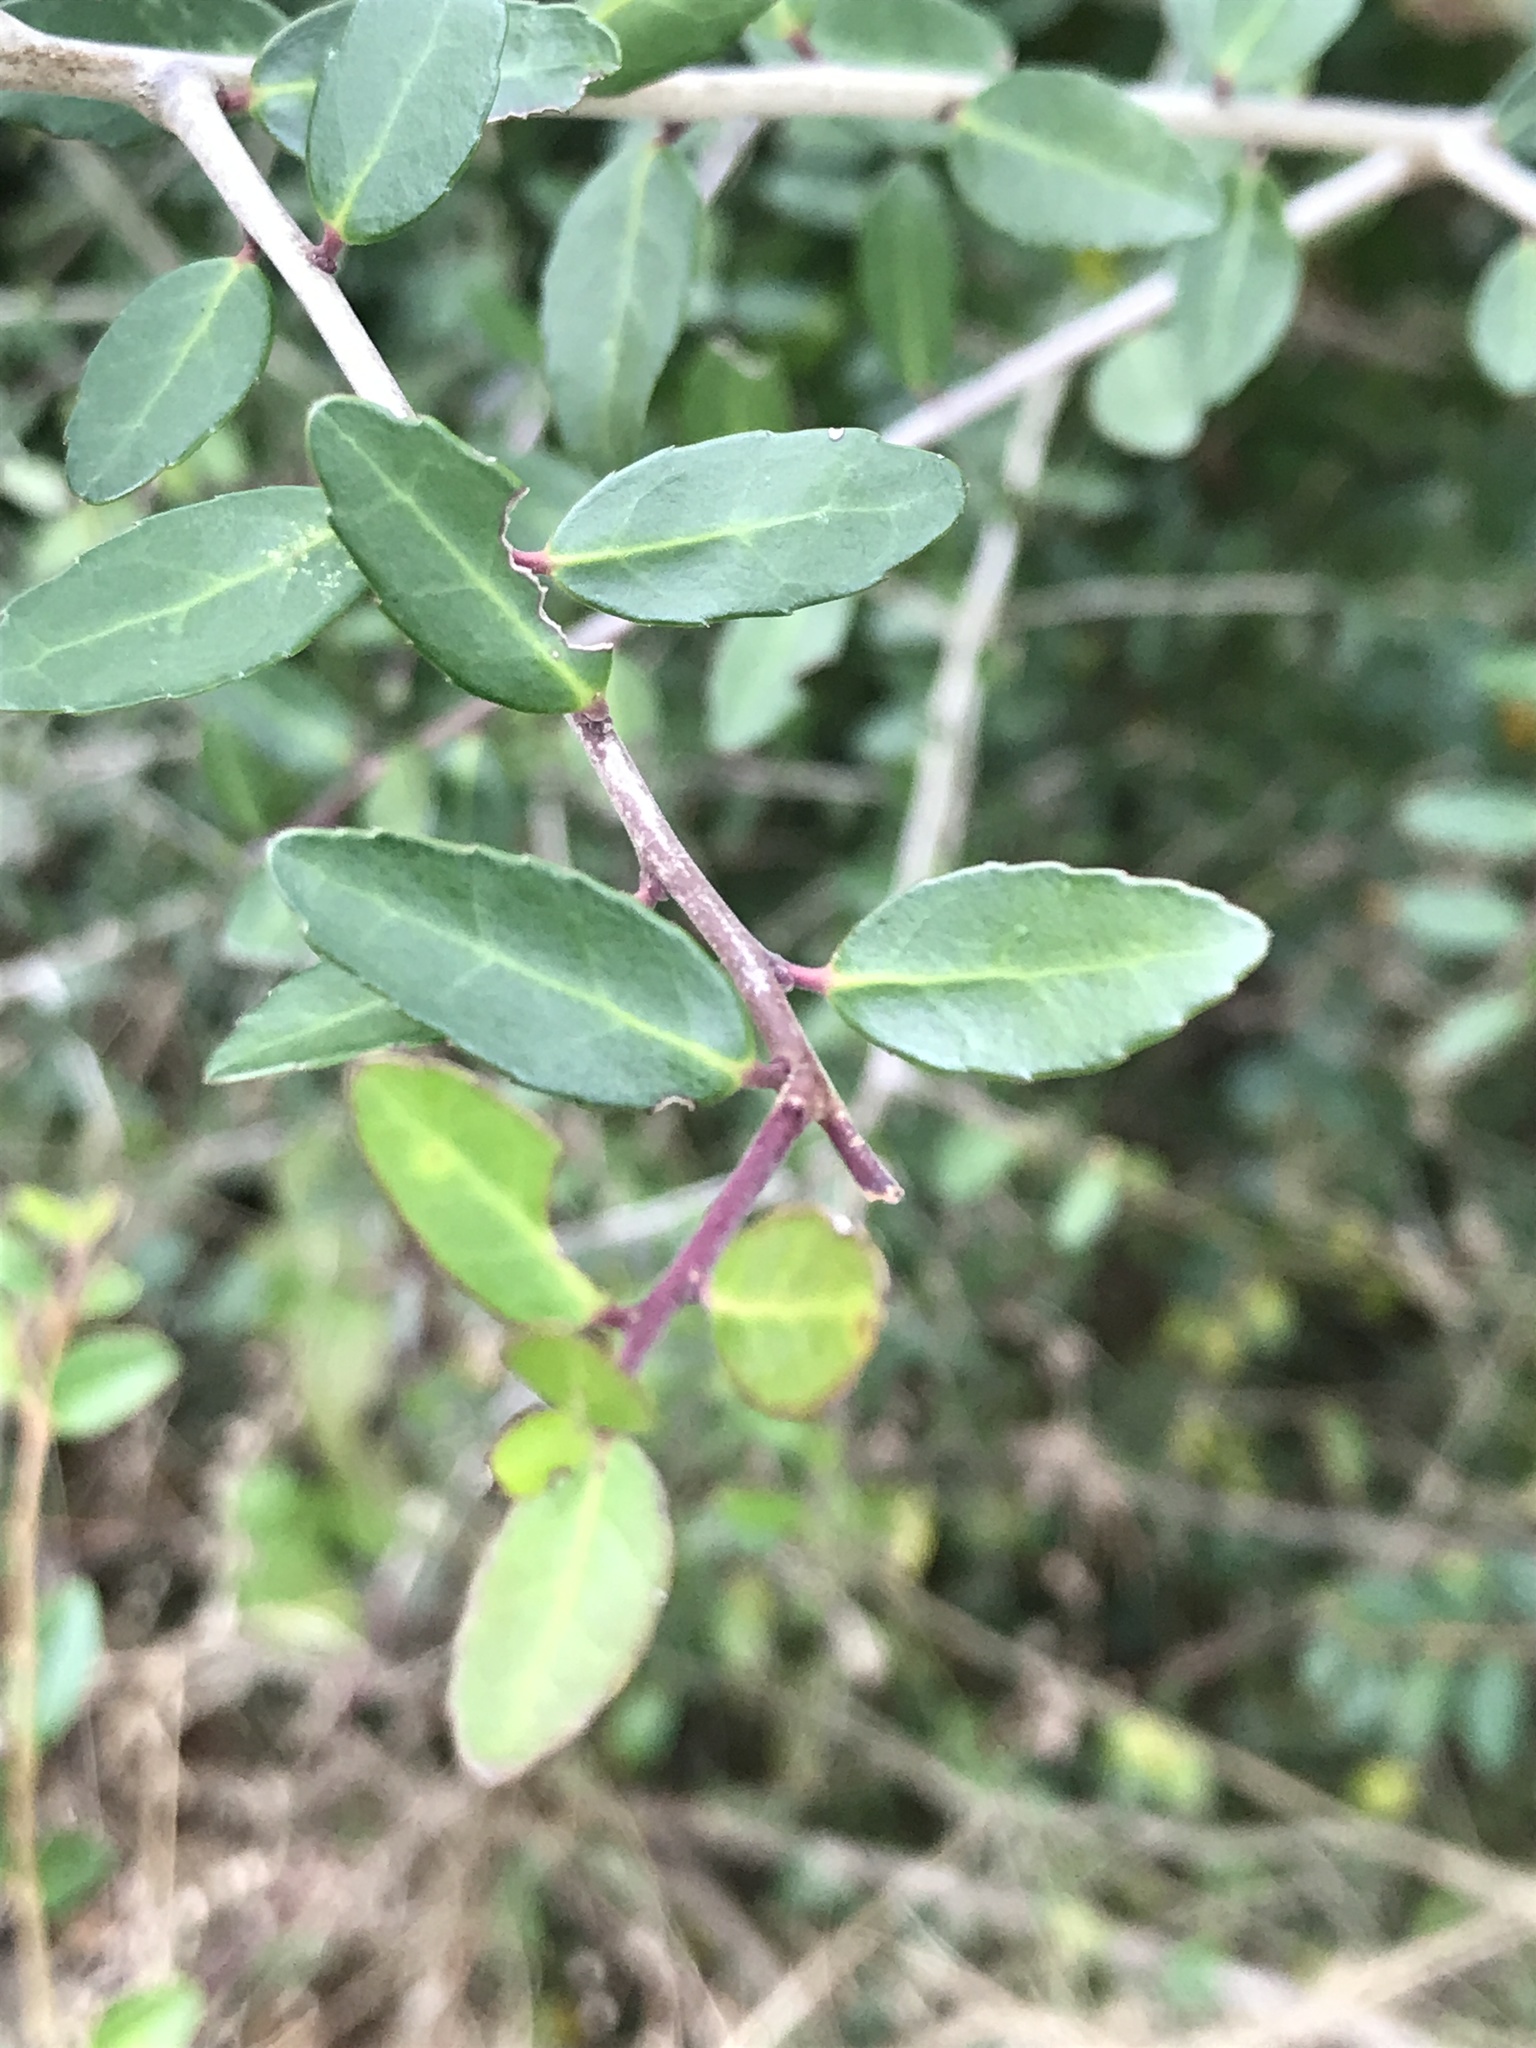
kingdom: Plantae
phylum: Tracheophyta
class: Magnoliopsida
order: Aquifoliales
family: Aquifoliaceae
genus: Ilex
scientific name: Ilex vomitoria
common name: Yaupon holly
